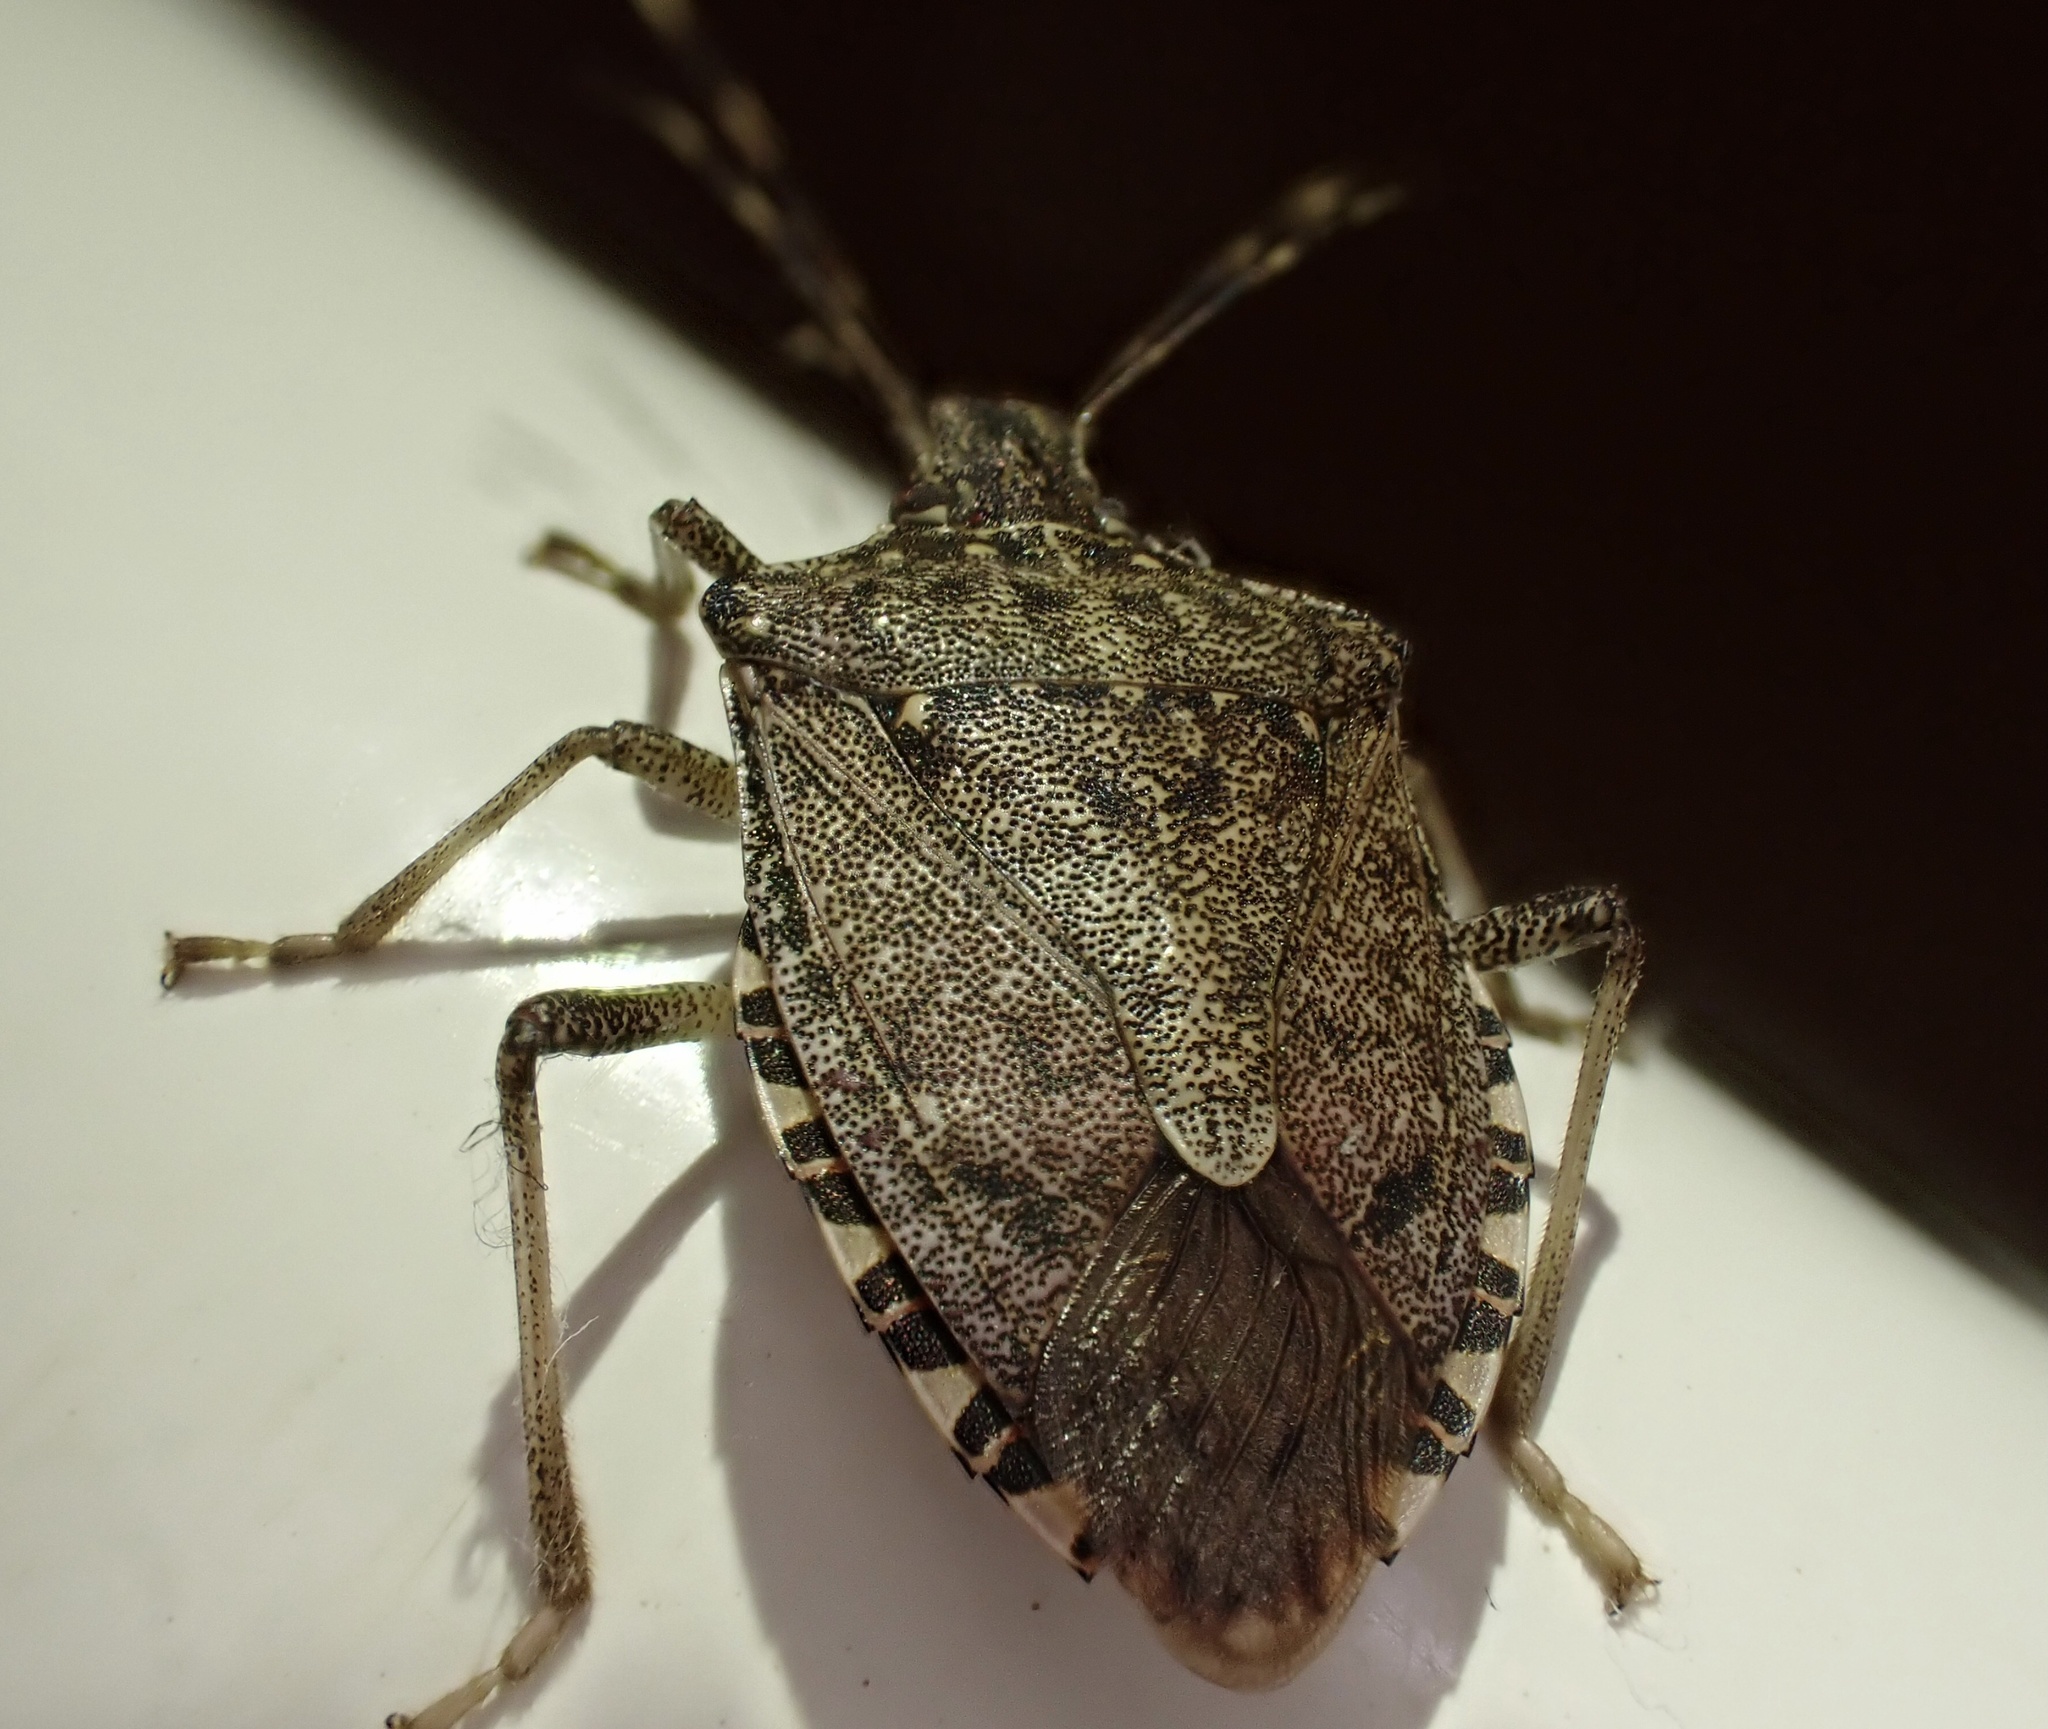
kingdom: Animalia
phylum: Arthropoda
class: Insecta
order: Hemiptera
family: Pentatomidae
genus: Halyomorpha
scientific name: Halyomorpha halys
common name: Brown marmorated stink bug
